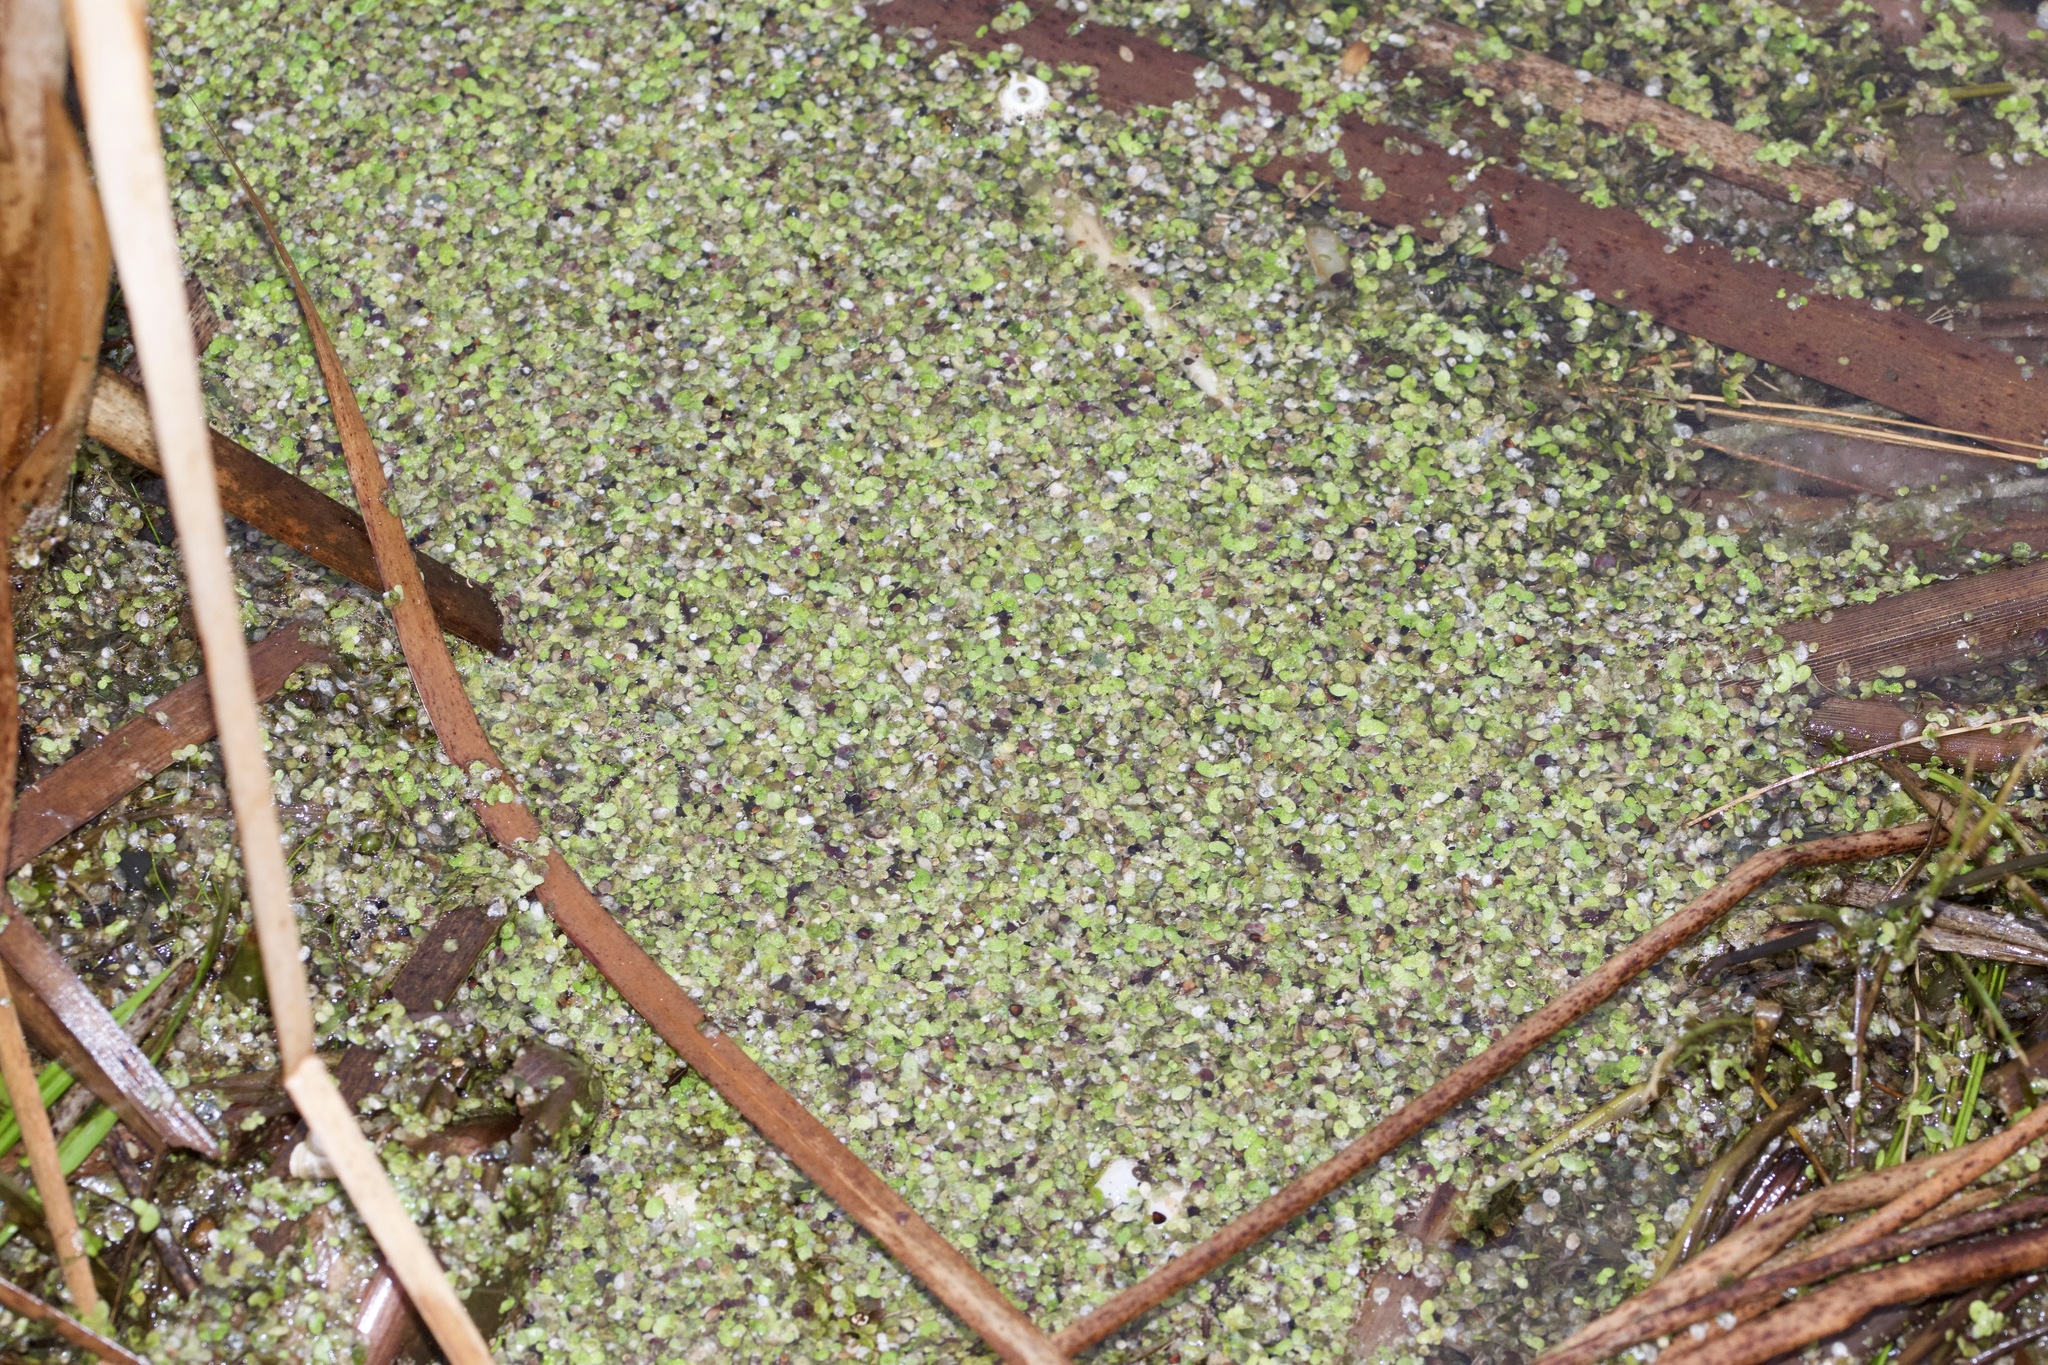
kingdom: Plantae
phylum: Tracheophyta
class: Liliopsida
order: Alismatales
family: Araceae
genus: Lemna
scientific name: Lemna minor
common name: Common duckweed
